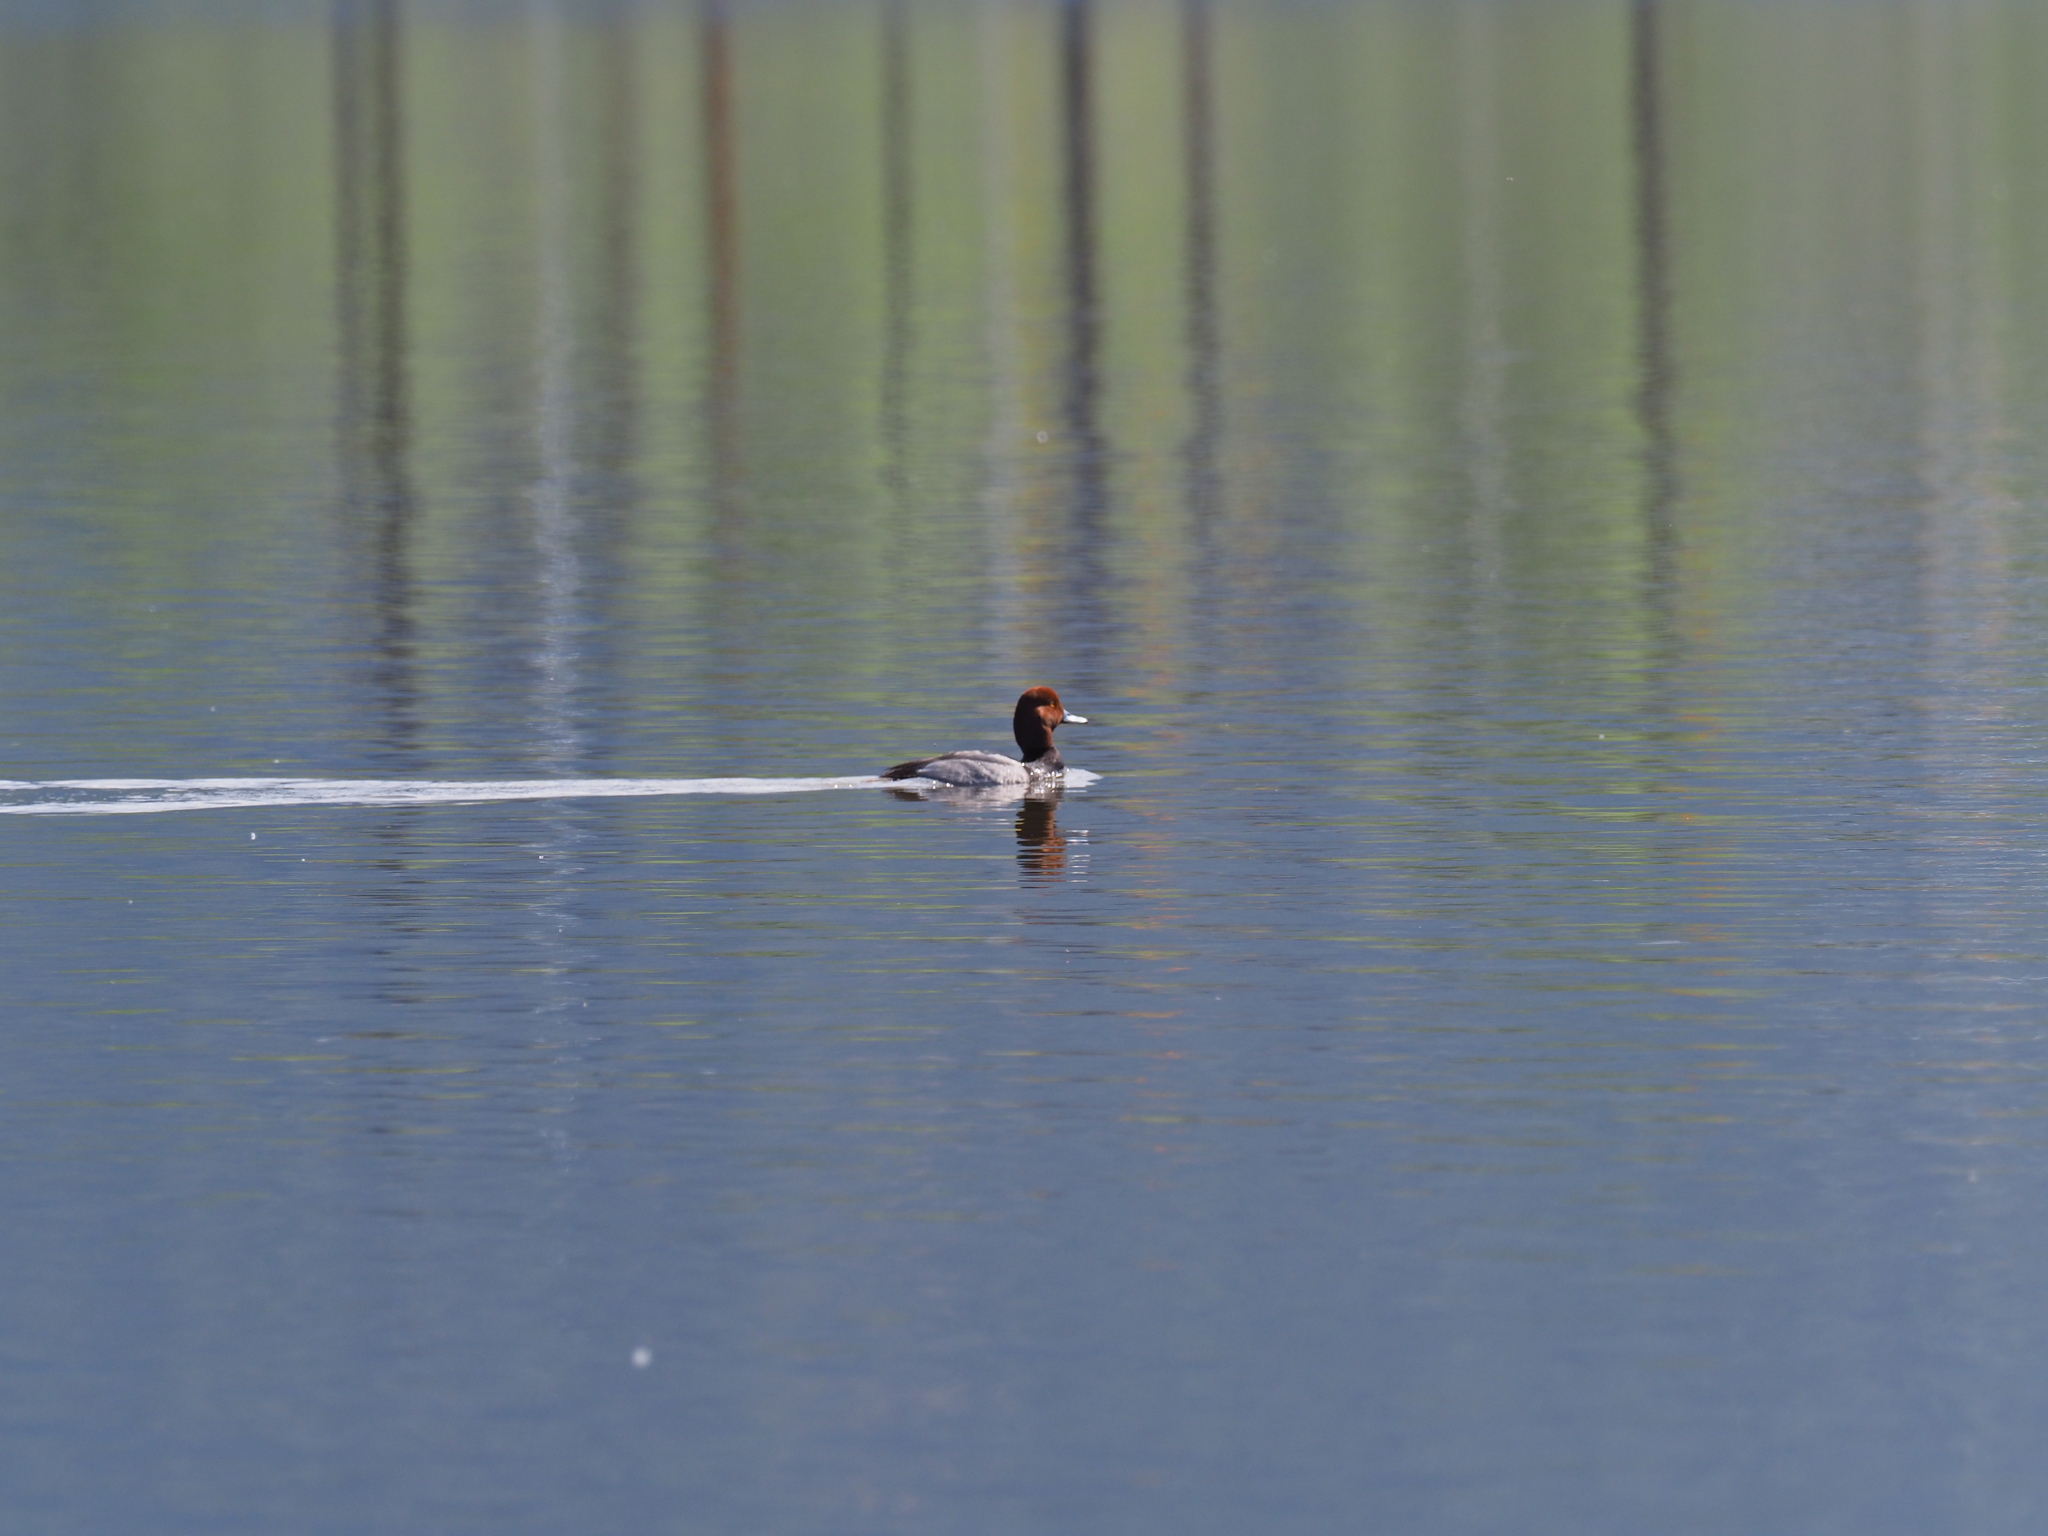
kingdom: Animalia
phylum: Chordata
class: Aves
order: Anseriformes
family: Anatidae
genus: Aythya
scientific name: Aythya americana
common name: Redhead
